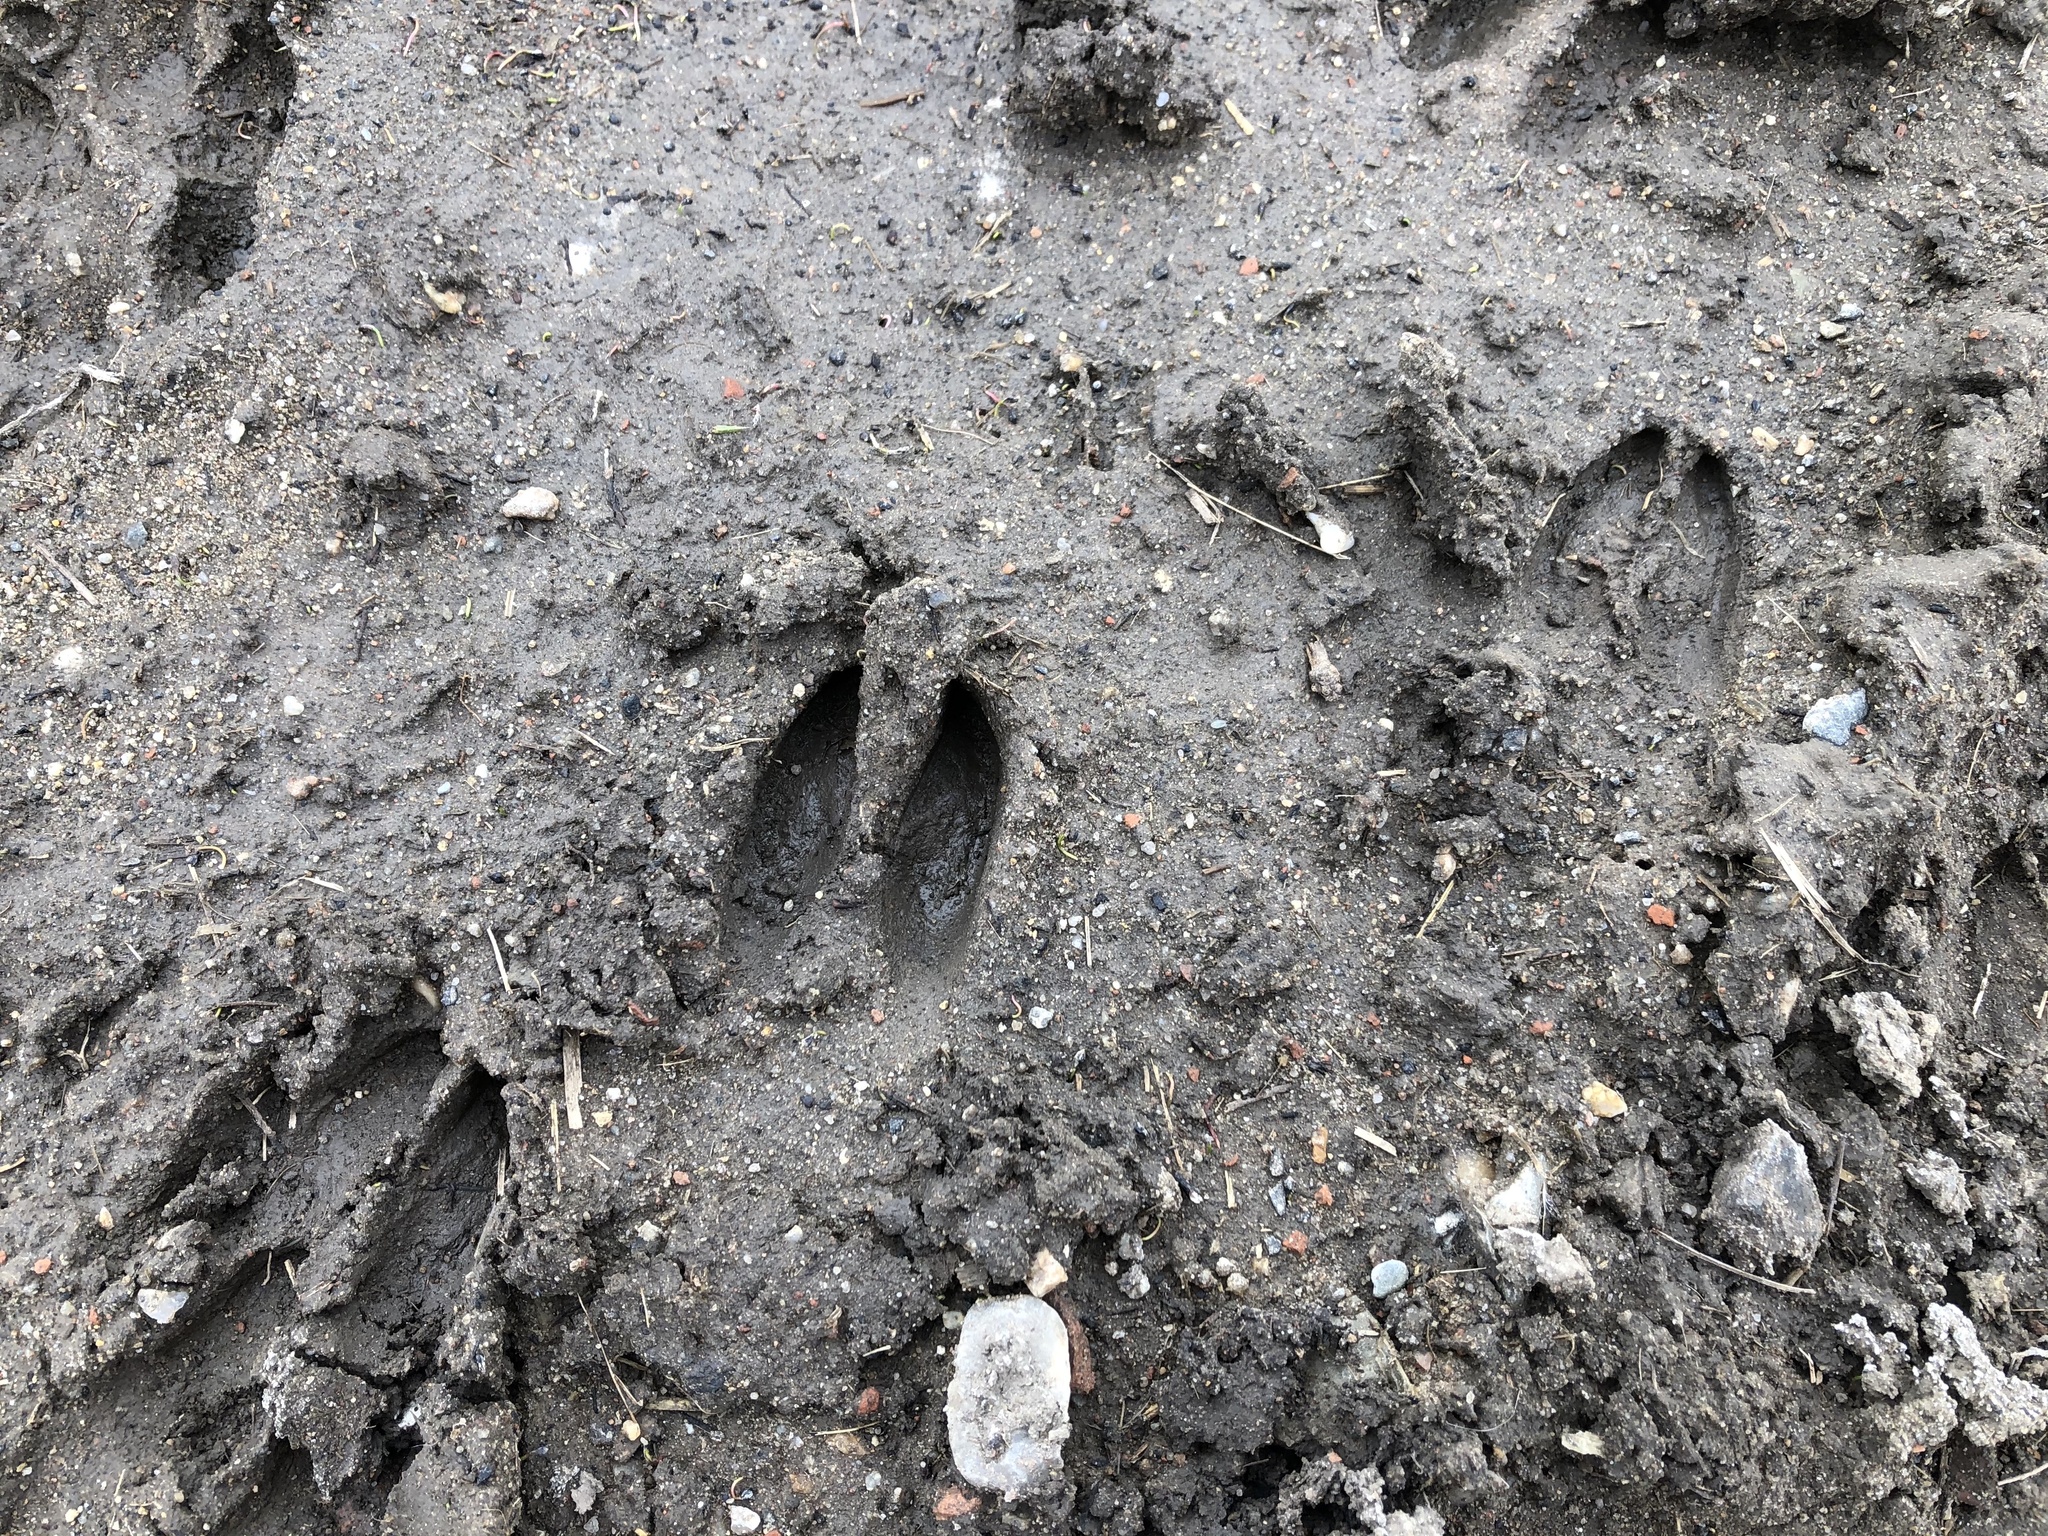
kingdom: Animalia
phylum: Chordata
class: Mammalia
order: Artiodactyla
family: Cervidae
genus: Capreolus
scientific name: Capreolus capreolus
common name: Western roe deer
